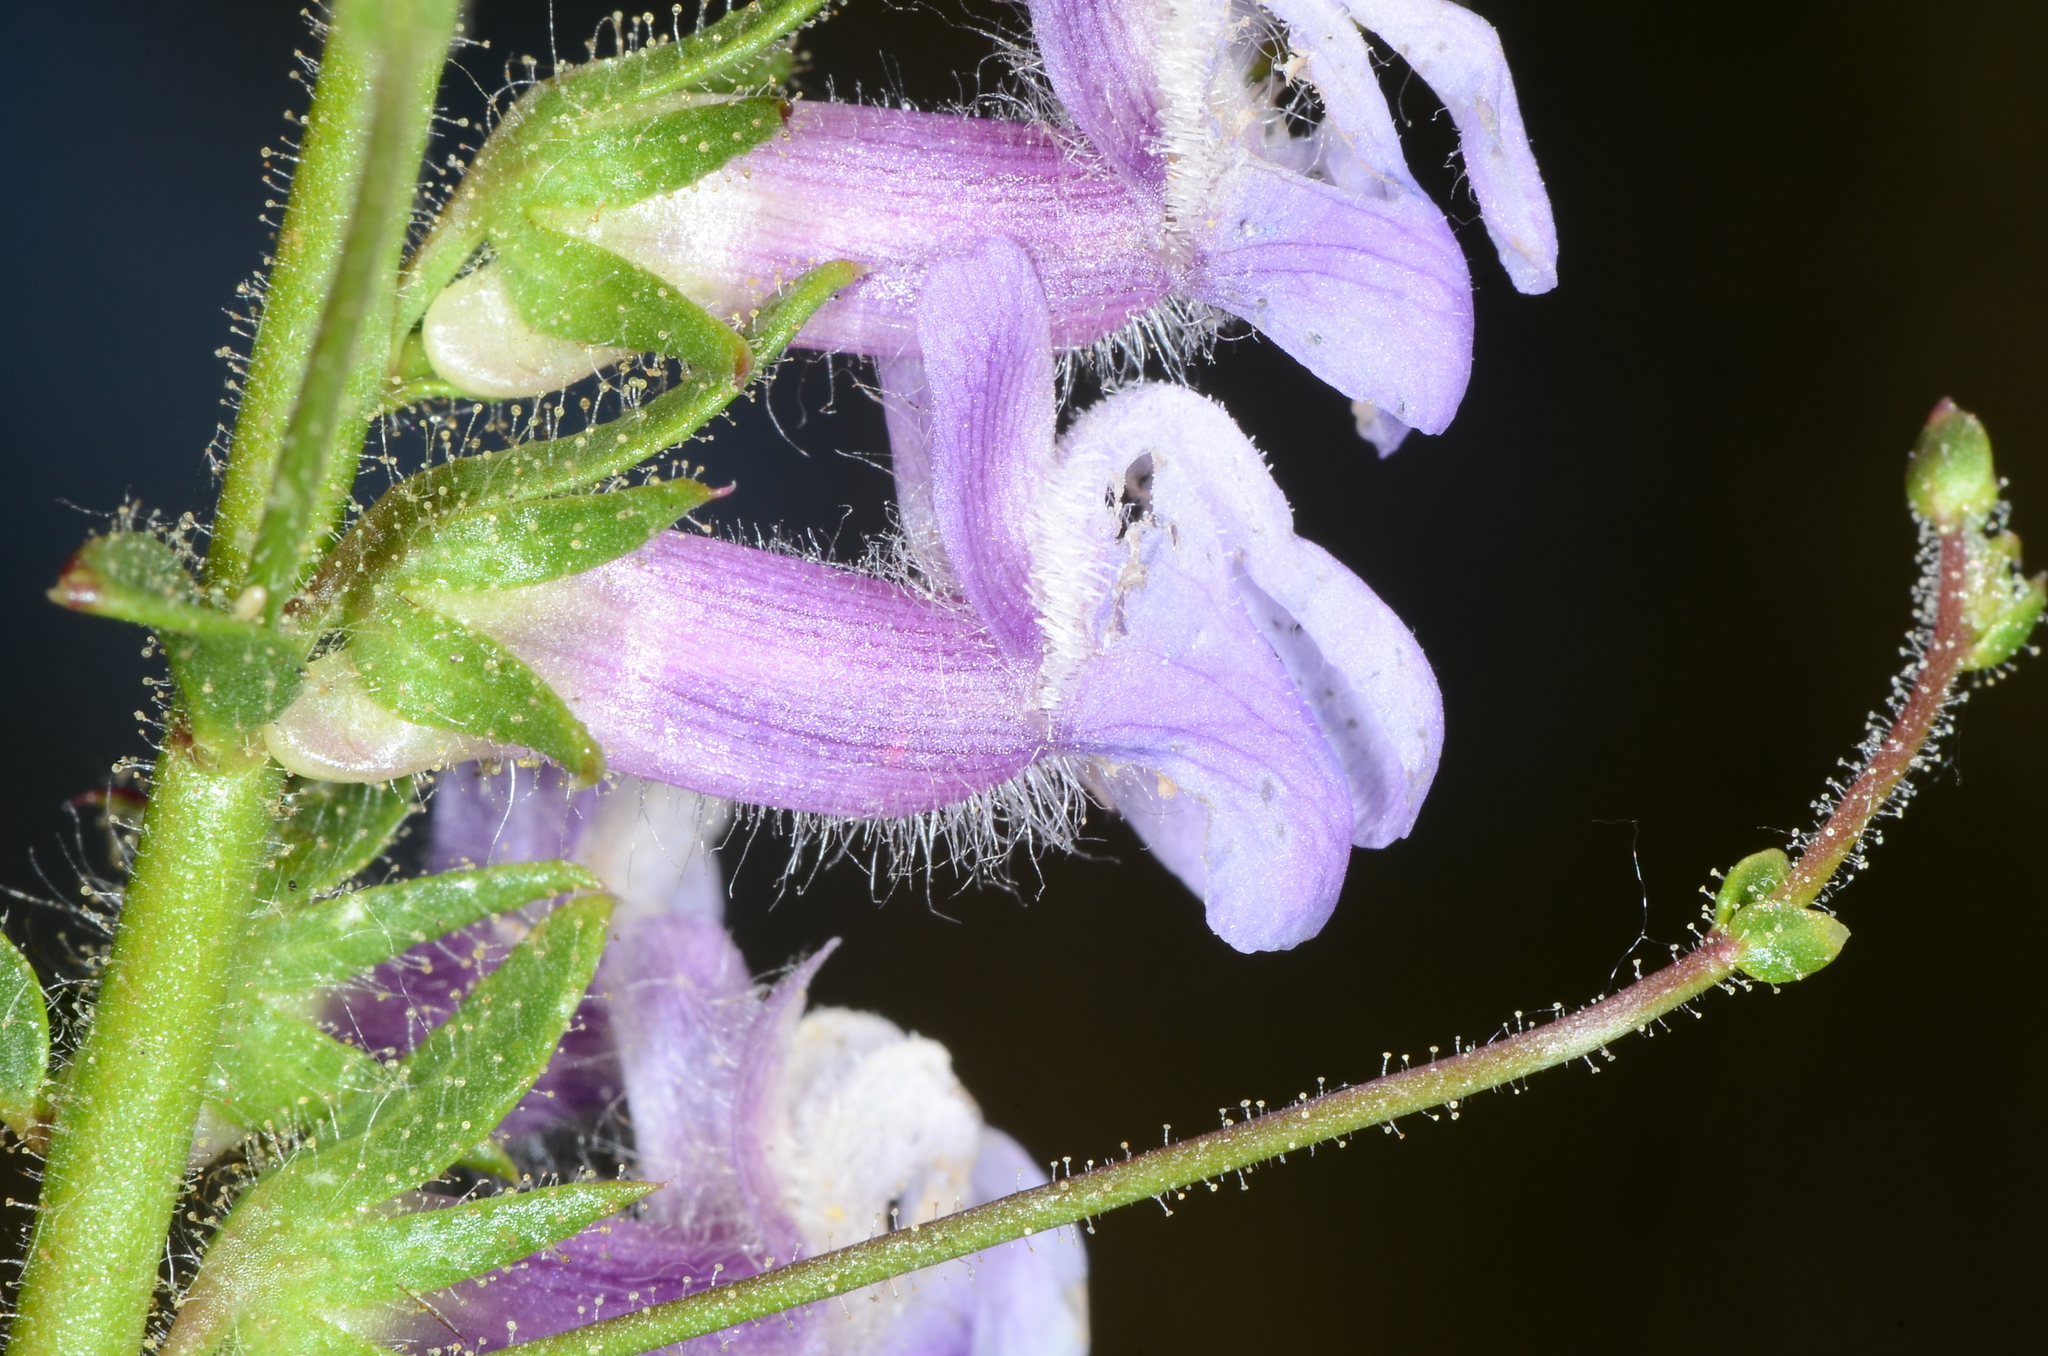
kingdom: Plantae
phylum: Tracheophyta
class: Magnoliopsida
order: Lamiales
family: Plantaginaceae
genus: Sairocarpus
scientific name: Sairocarpus vexillocalyculatus
